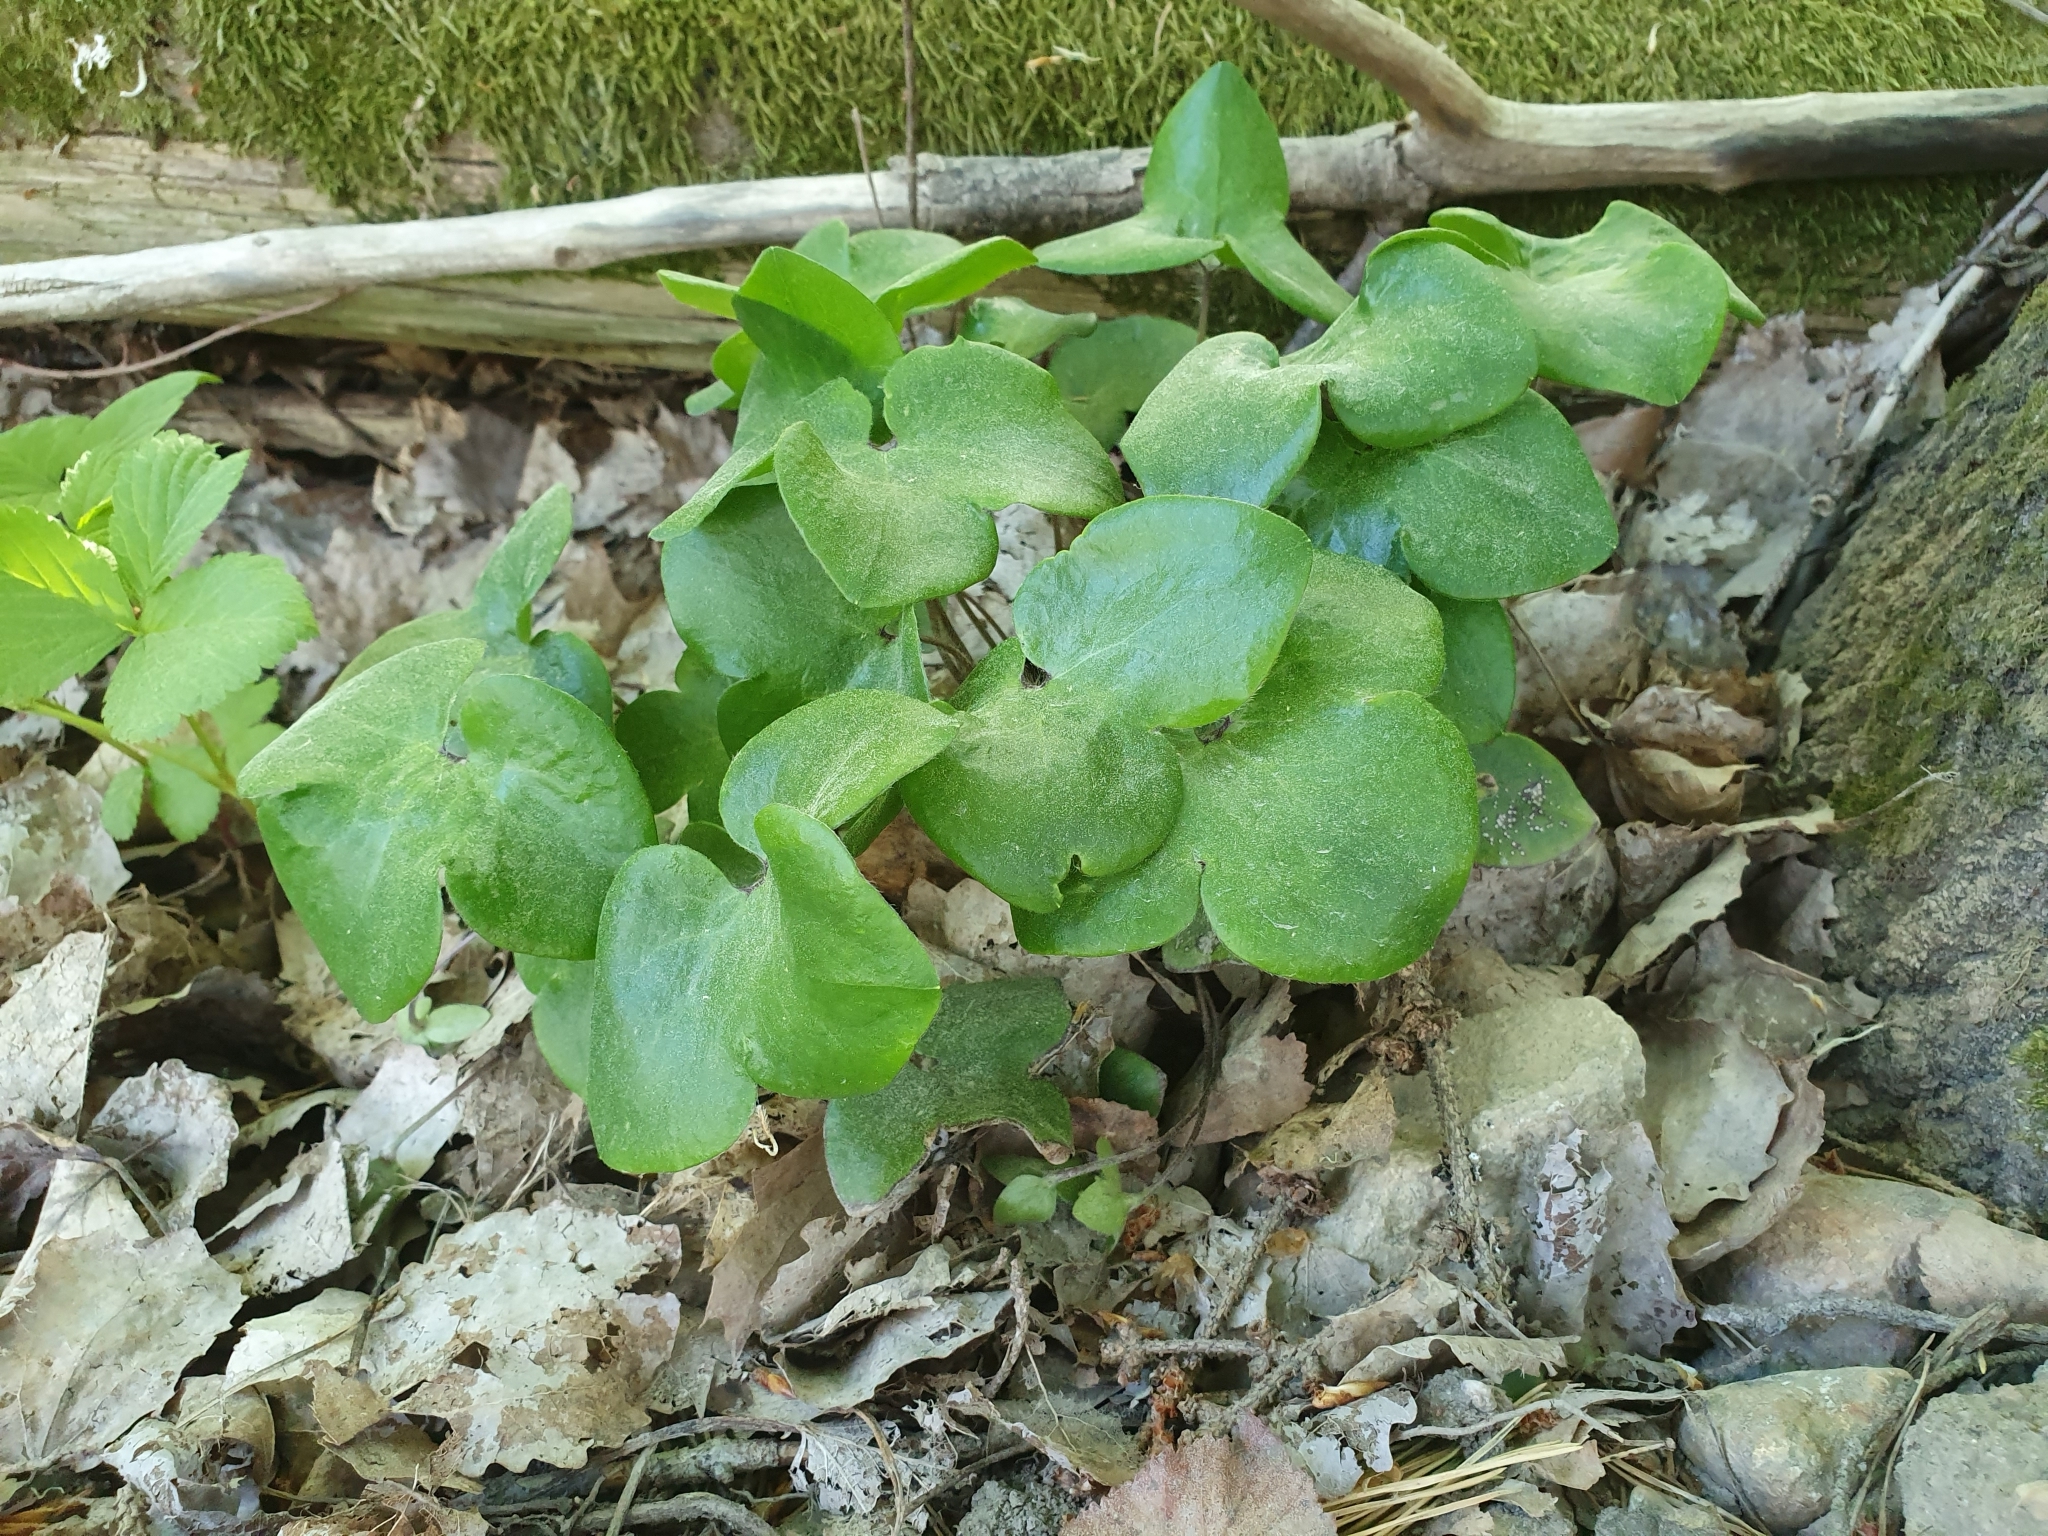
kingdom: Plantae
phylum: Tracheophyta
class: Magnoliopsida
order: Ranunculales
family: Ranunculaceae
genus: Hepatica
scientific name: Hepatica nobilis
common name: Liverleaf
